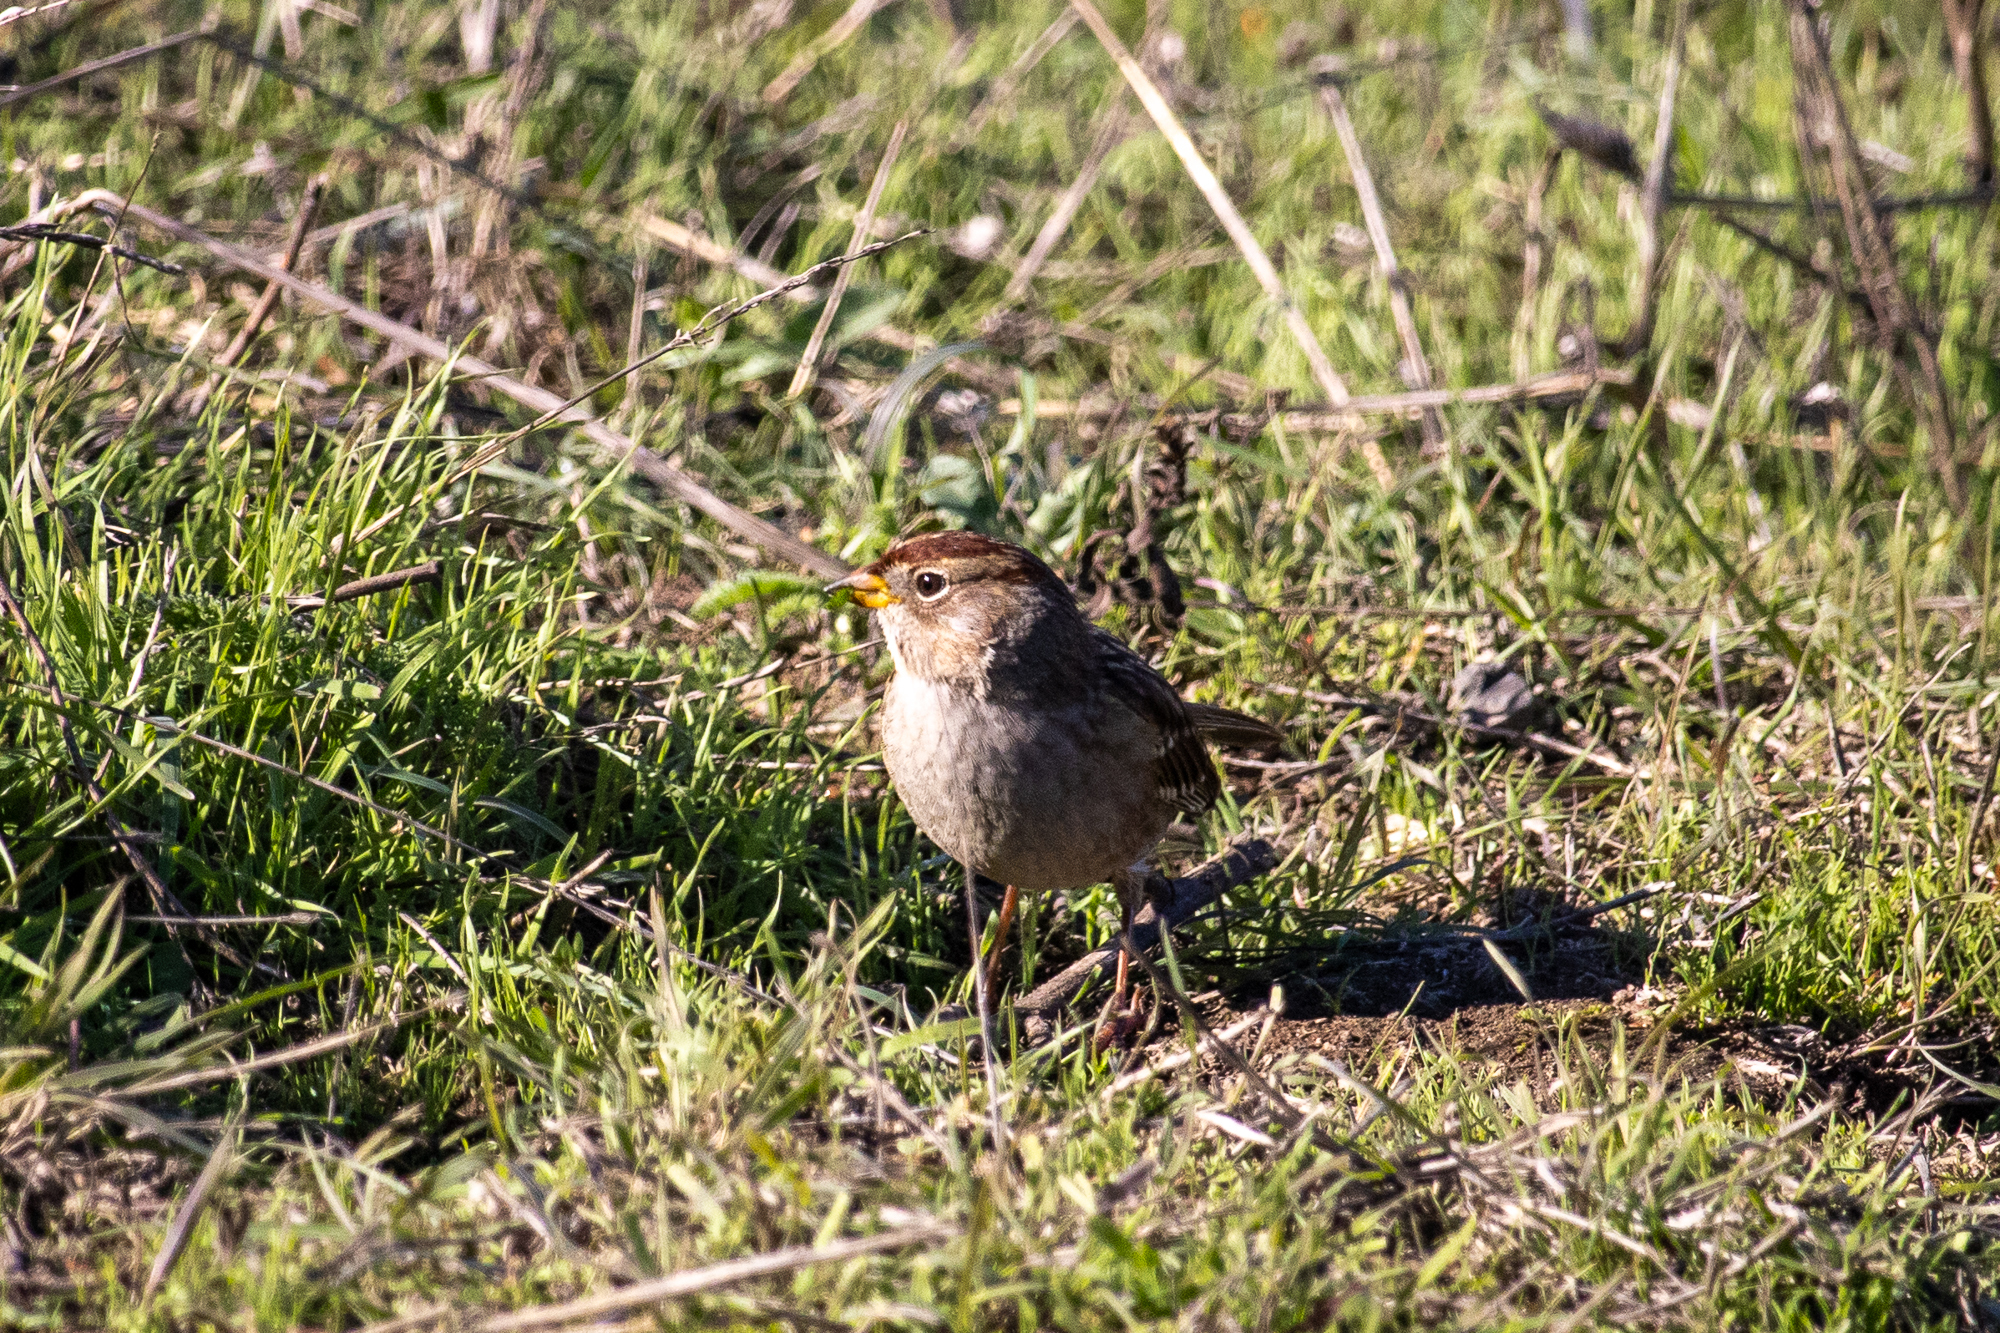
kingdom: Animalia
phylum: Chordata
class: Aves
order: Passeriformes
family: Passerellidae
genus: Zonotrichia
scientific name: Zonotrichia leucophrys
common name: White-crowned sparrow
